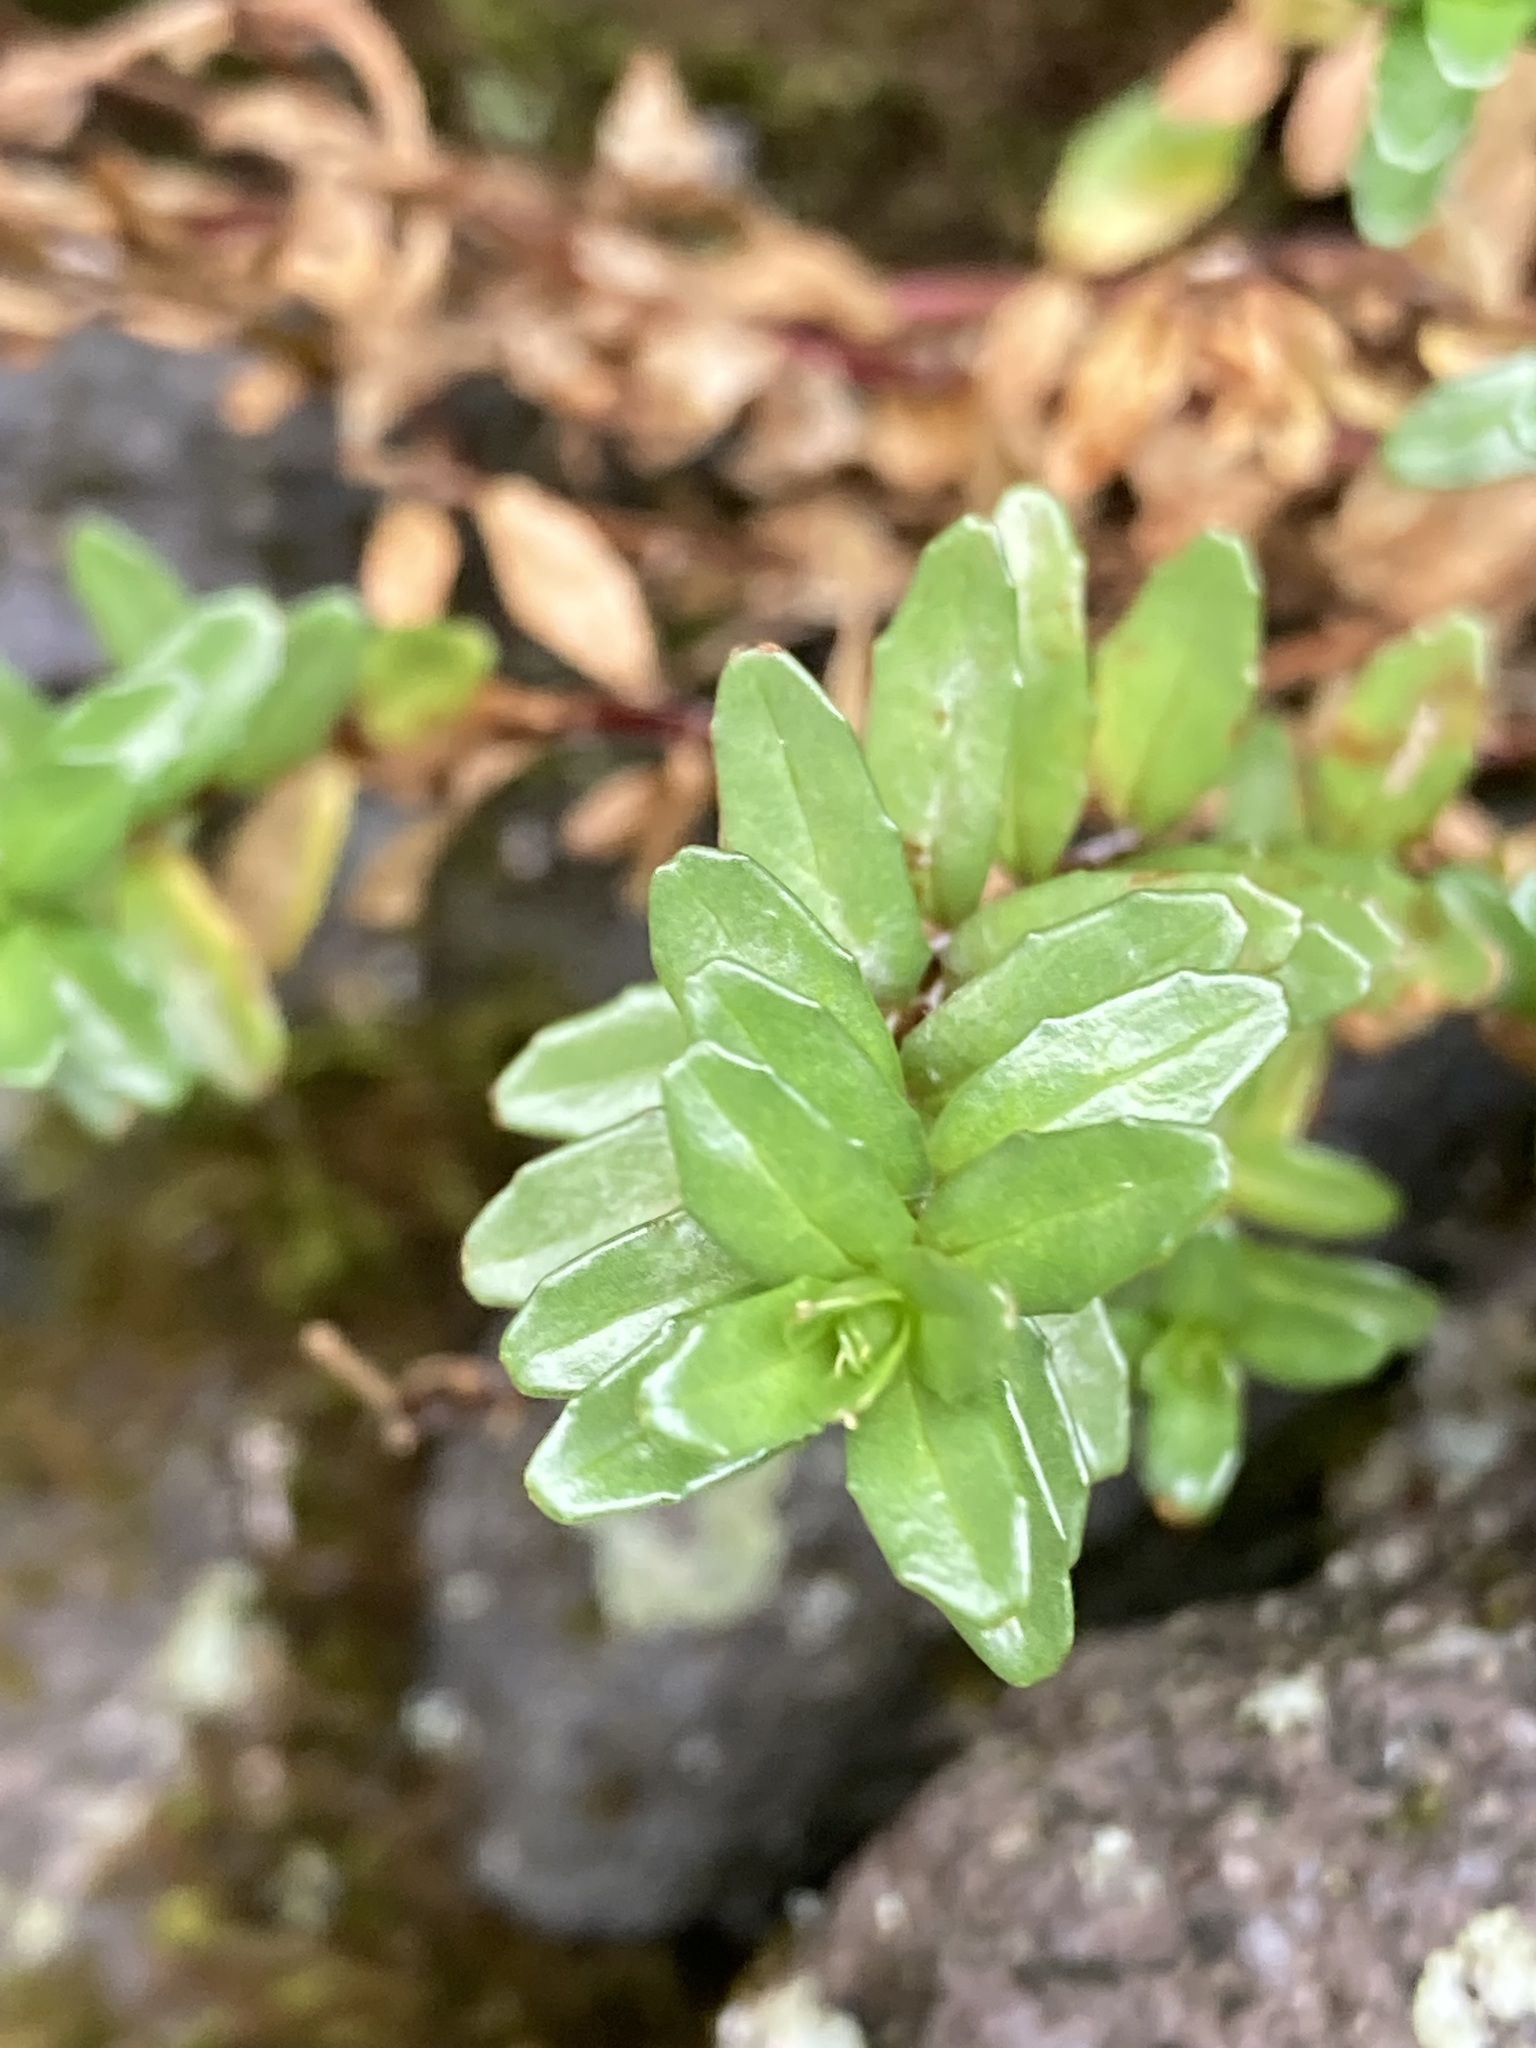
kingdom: Plantae
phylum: Tracheophyta
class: Magnoliopsida
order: Myrtales
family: Onagraceae
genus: Epilobium
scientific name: Epilobium glabellum
